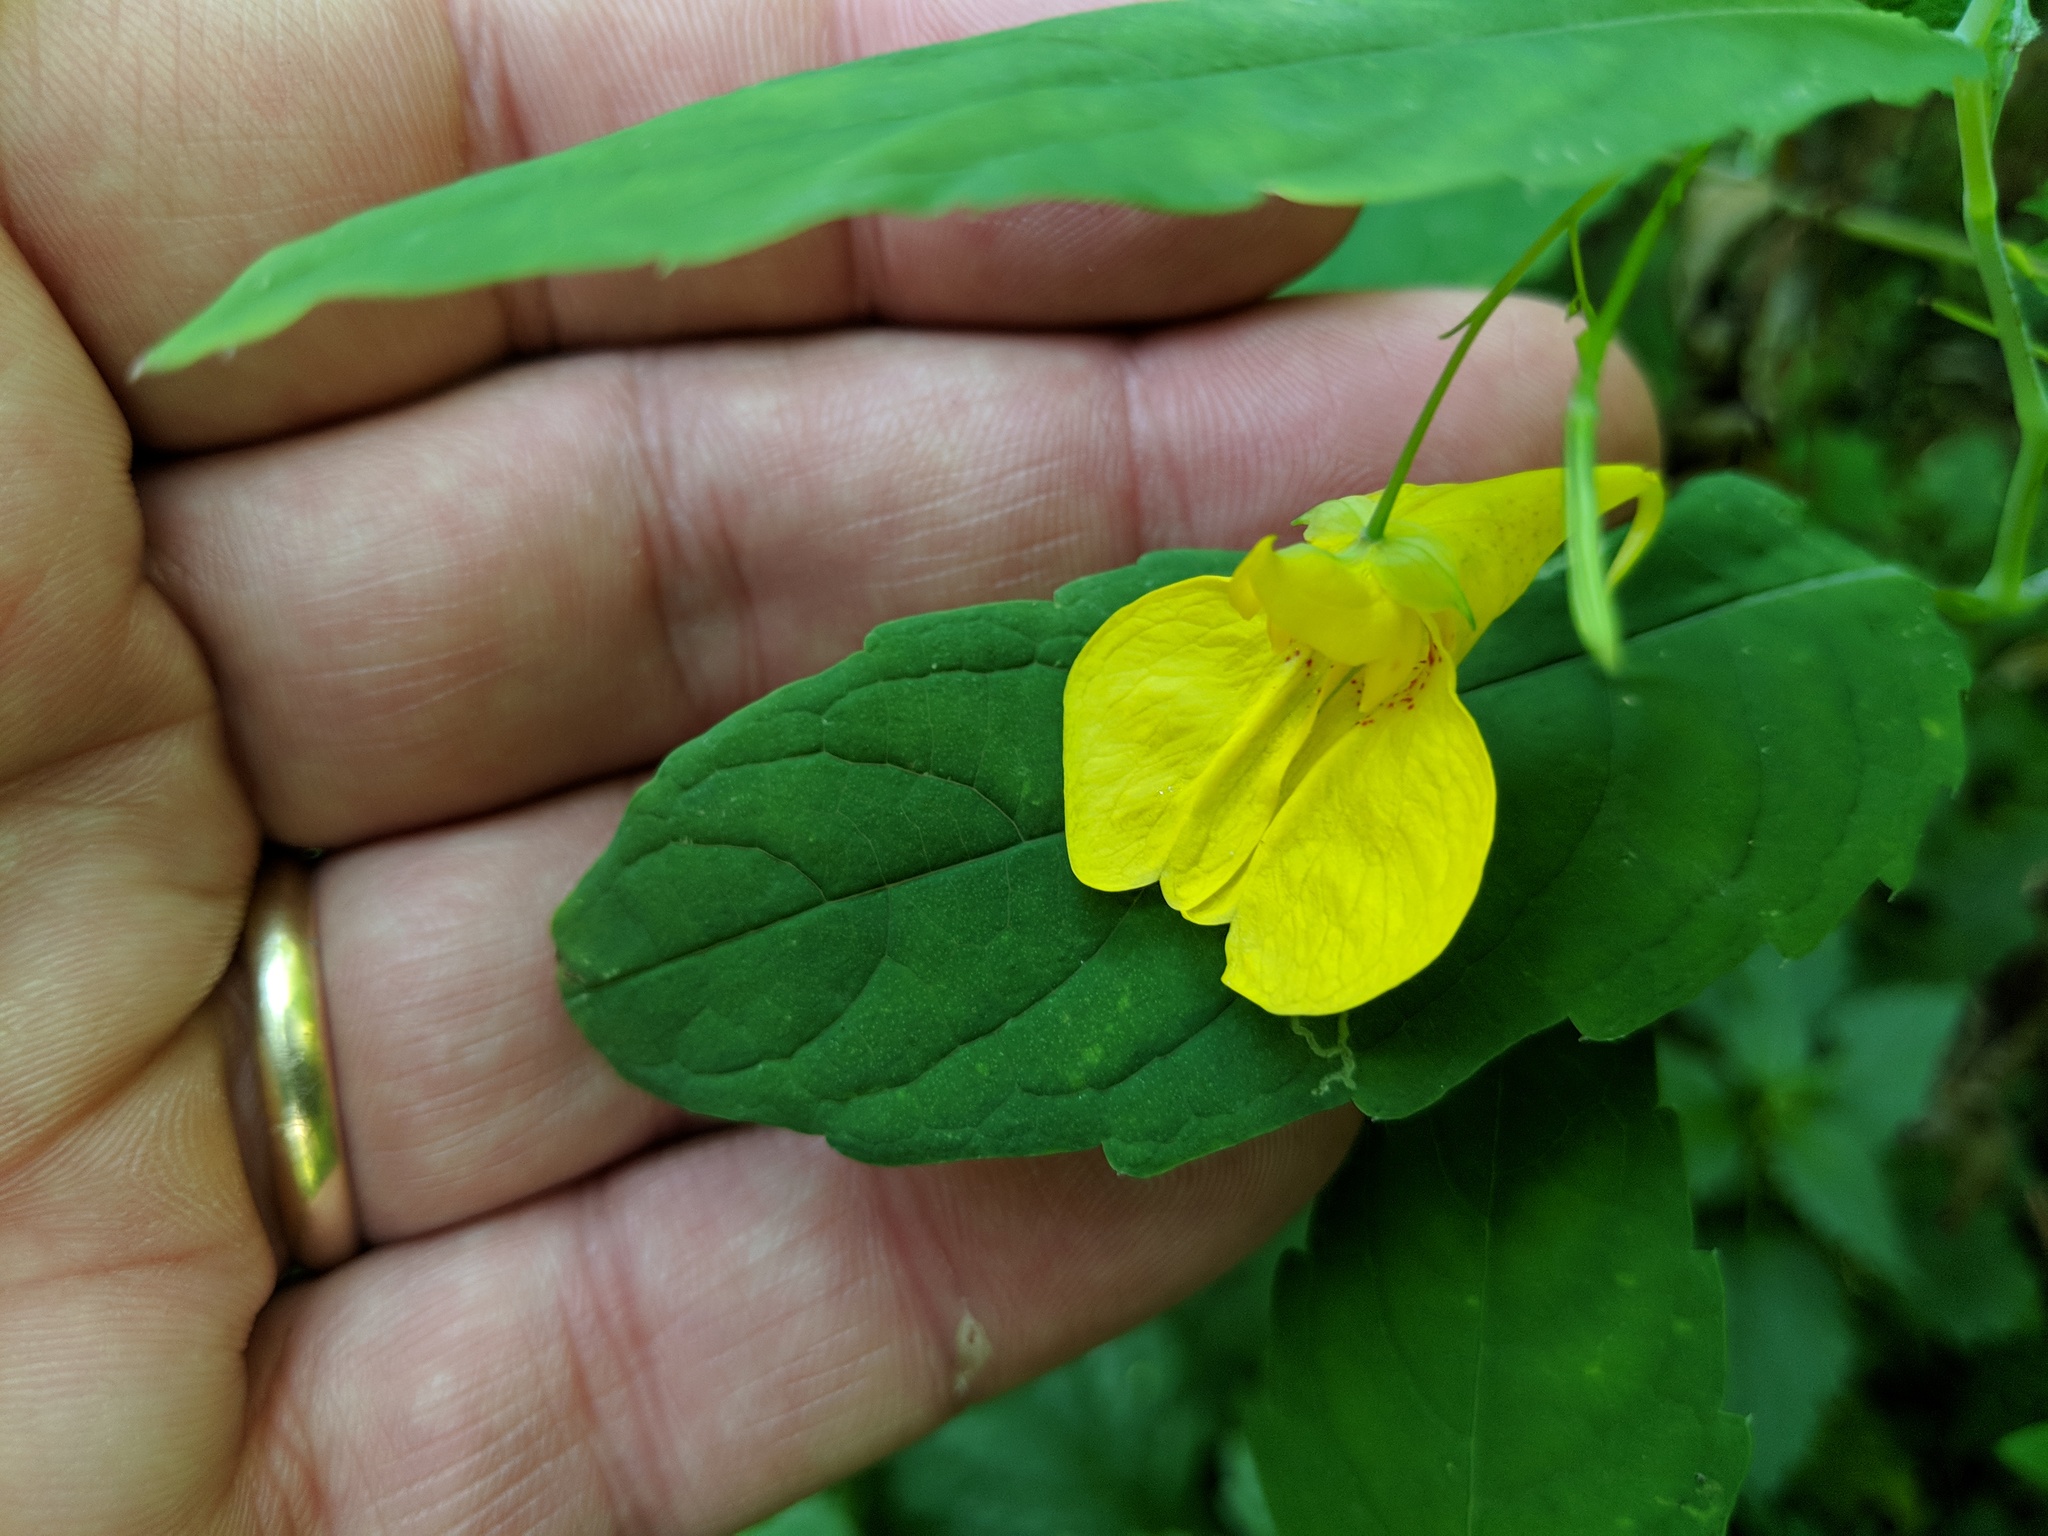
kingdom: Plantae
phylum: Tracheophyta
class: Magnoliopsida
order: Ericales
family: Balsaminaceae
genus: Impatiens
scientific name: Impatiens noli-tangere
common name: Touch-me-not balsam
